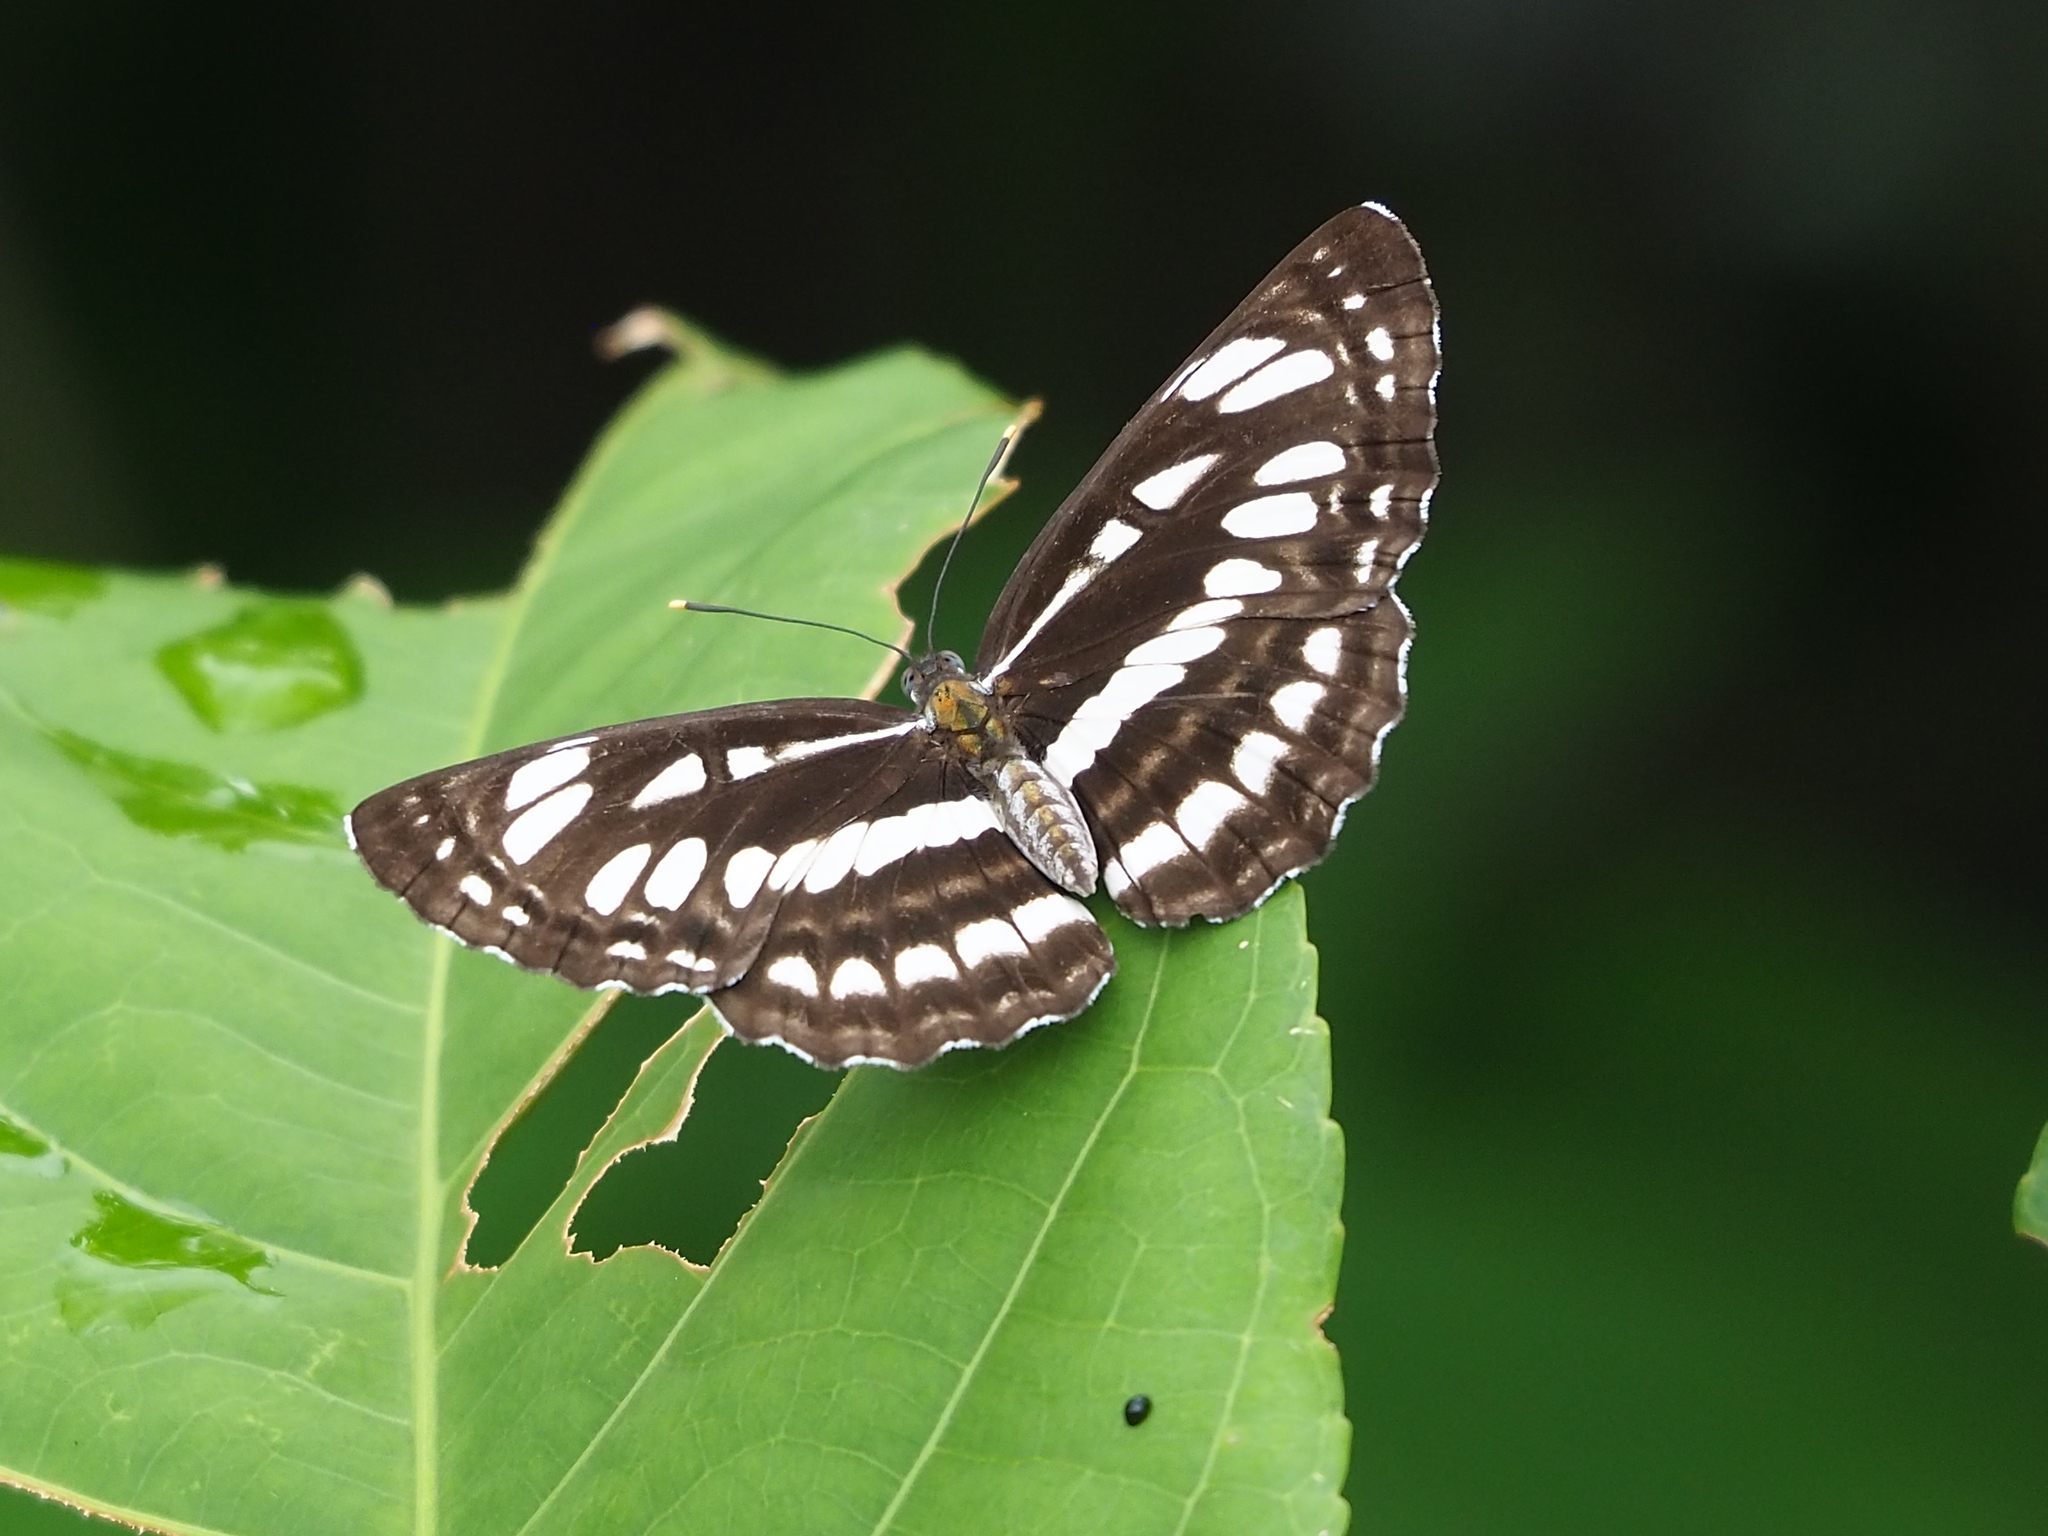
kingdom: Animalia
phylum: Arthropoda
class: Insecta
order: Lepidoptera
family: Nymphalidae
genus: Neptis
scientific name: Neptis hylas
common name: Common sailer
